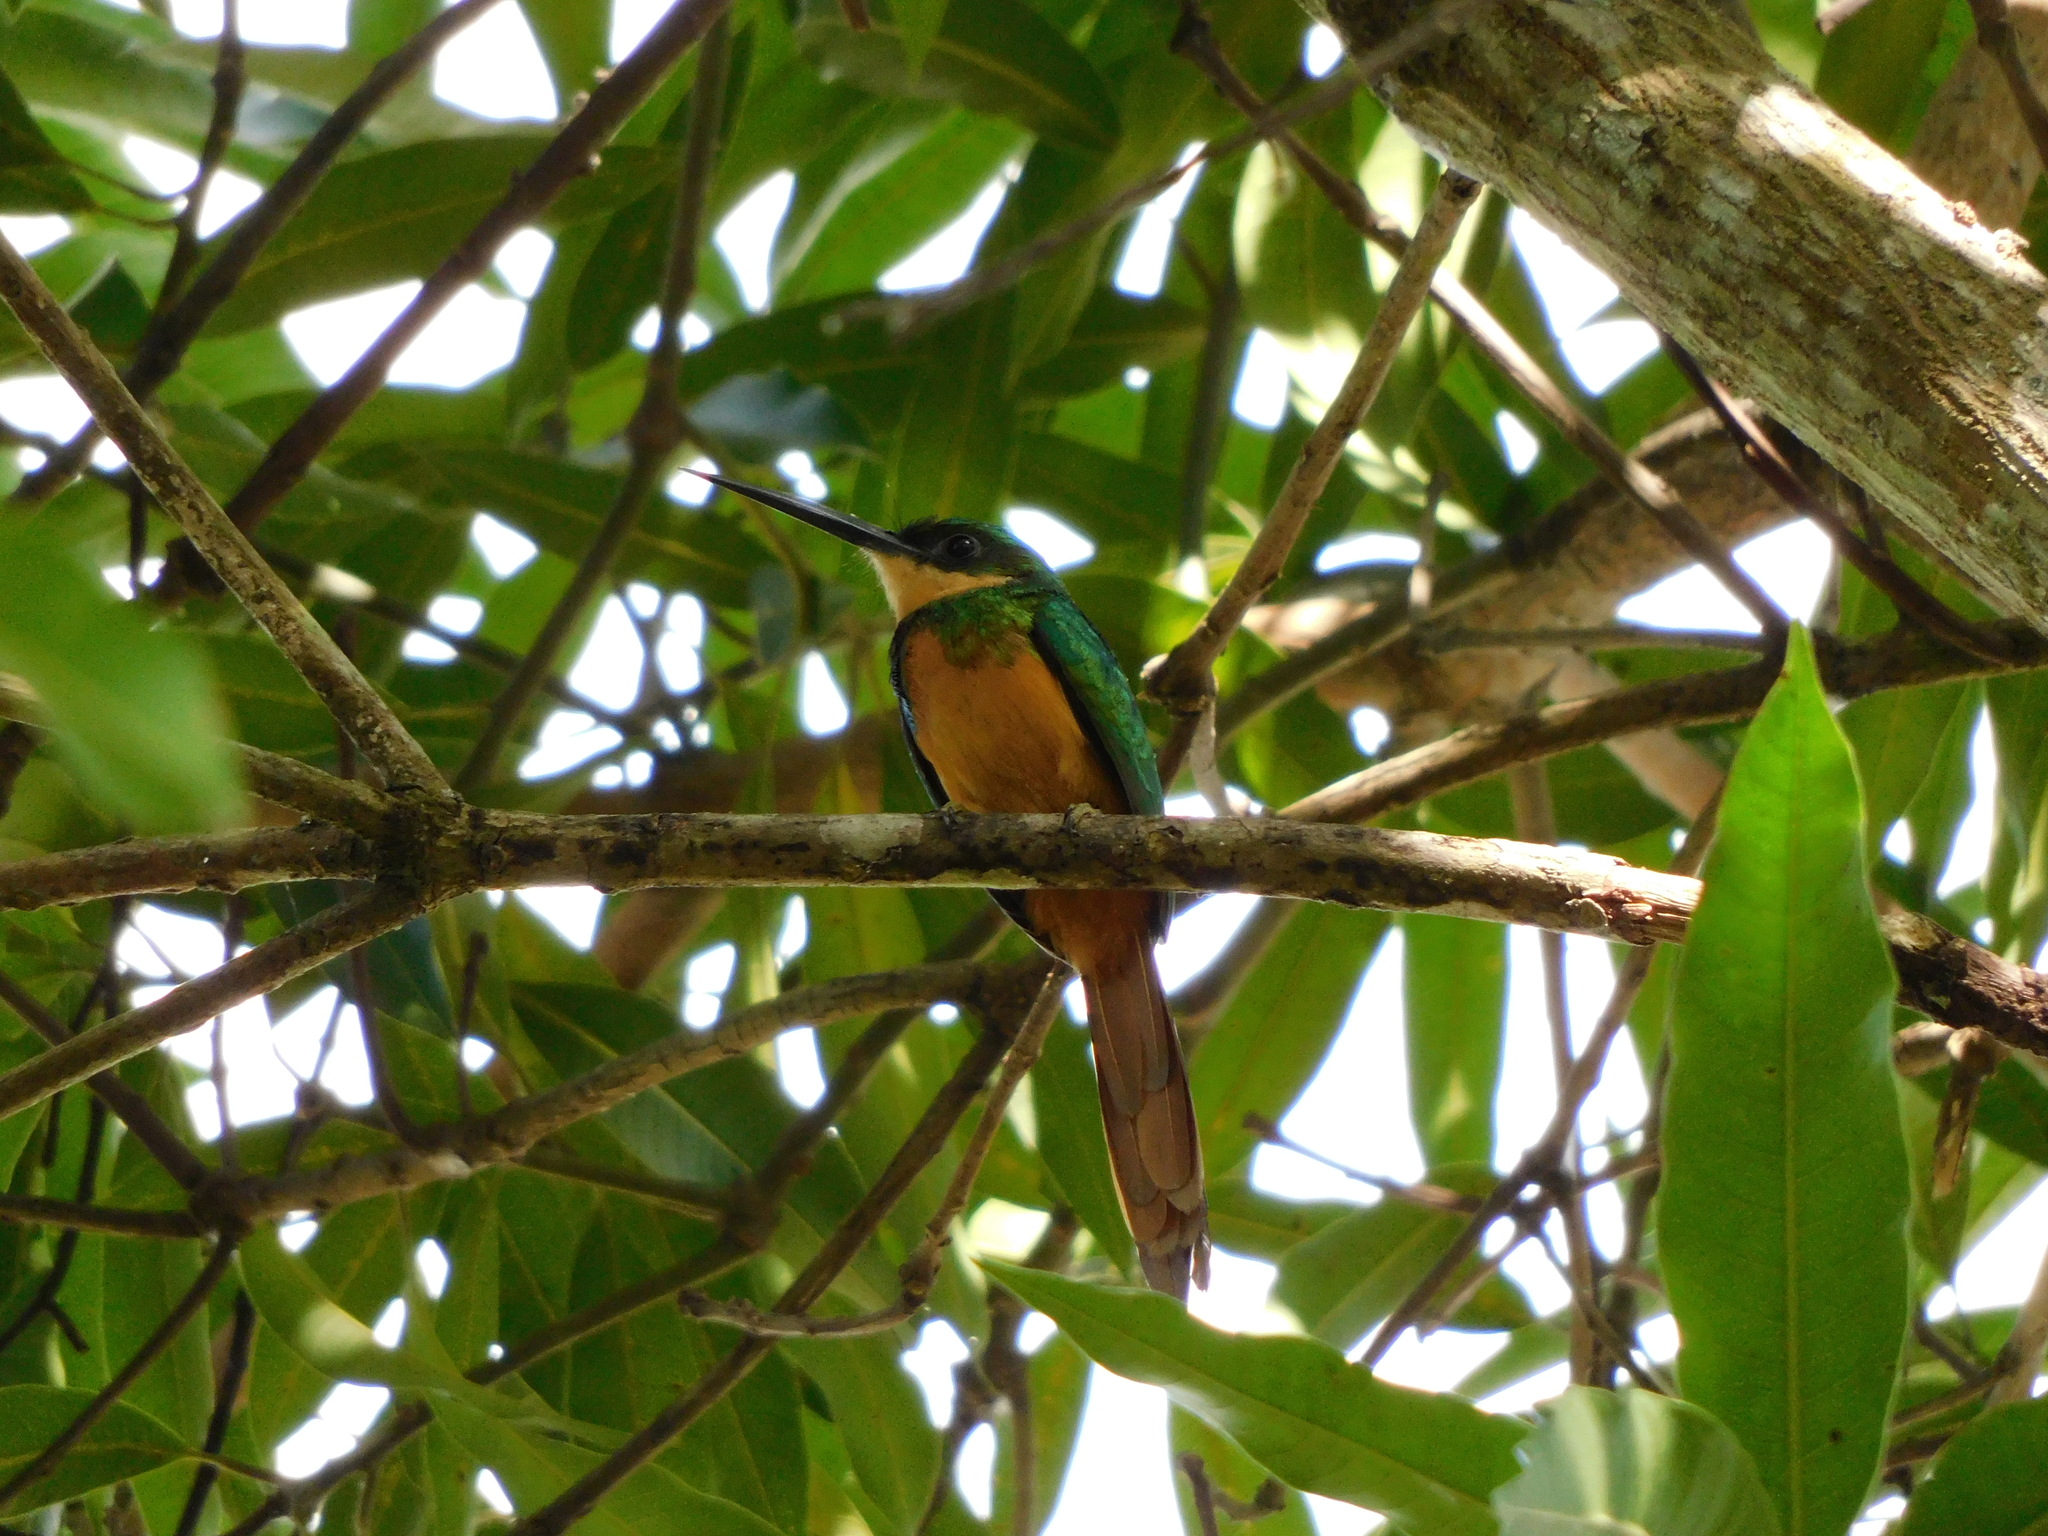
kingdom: Animalia
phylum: Chordata
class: Aves
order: Piciformes
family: Galbulidae
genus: Galbula
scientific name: Galbula ruficauda
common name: Rufous-tailed jacamar
